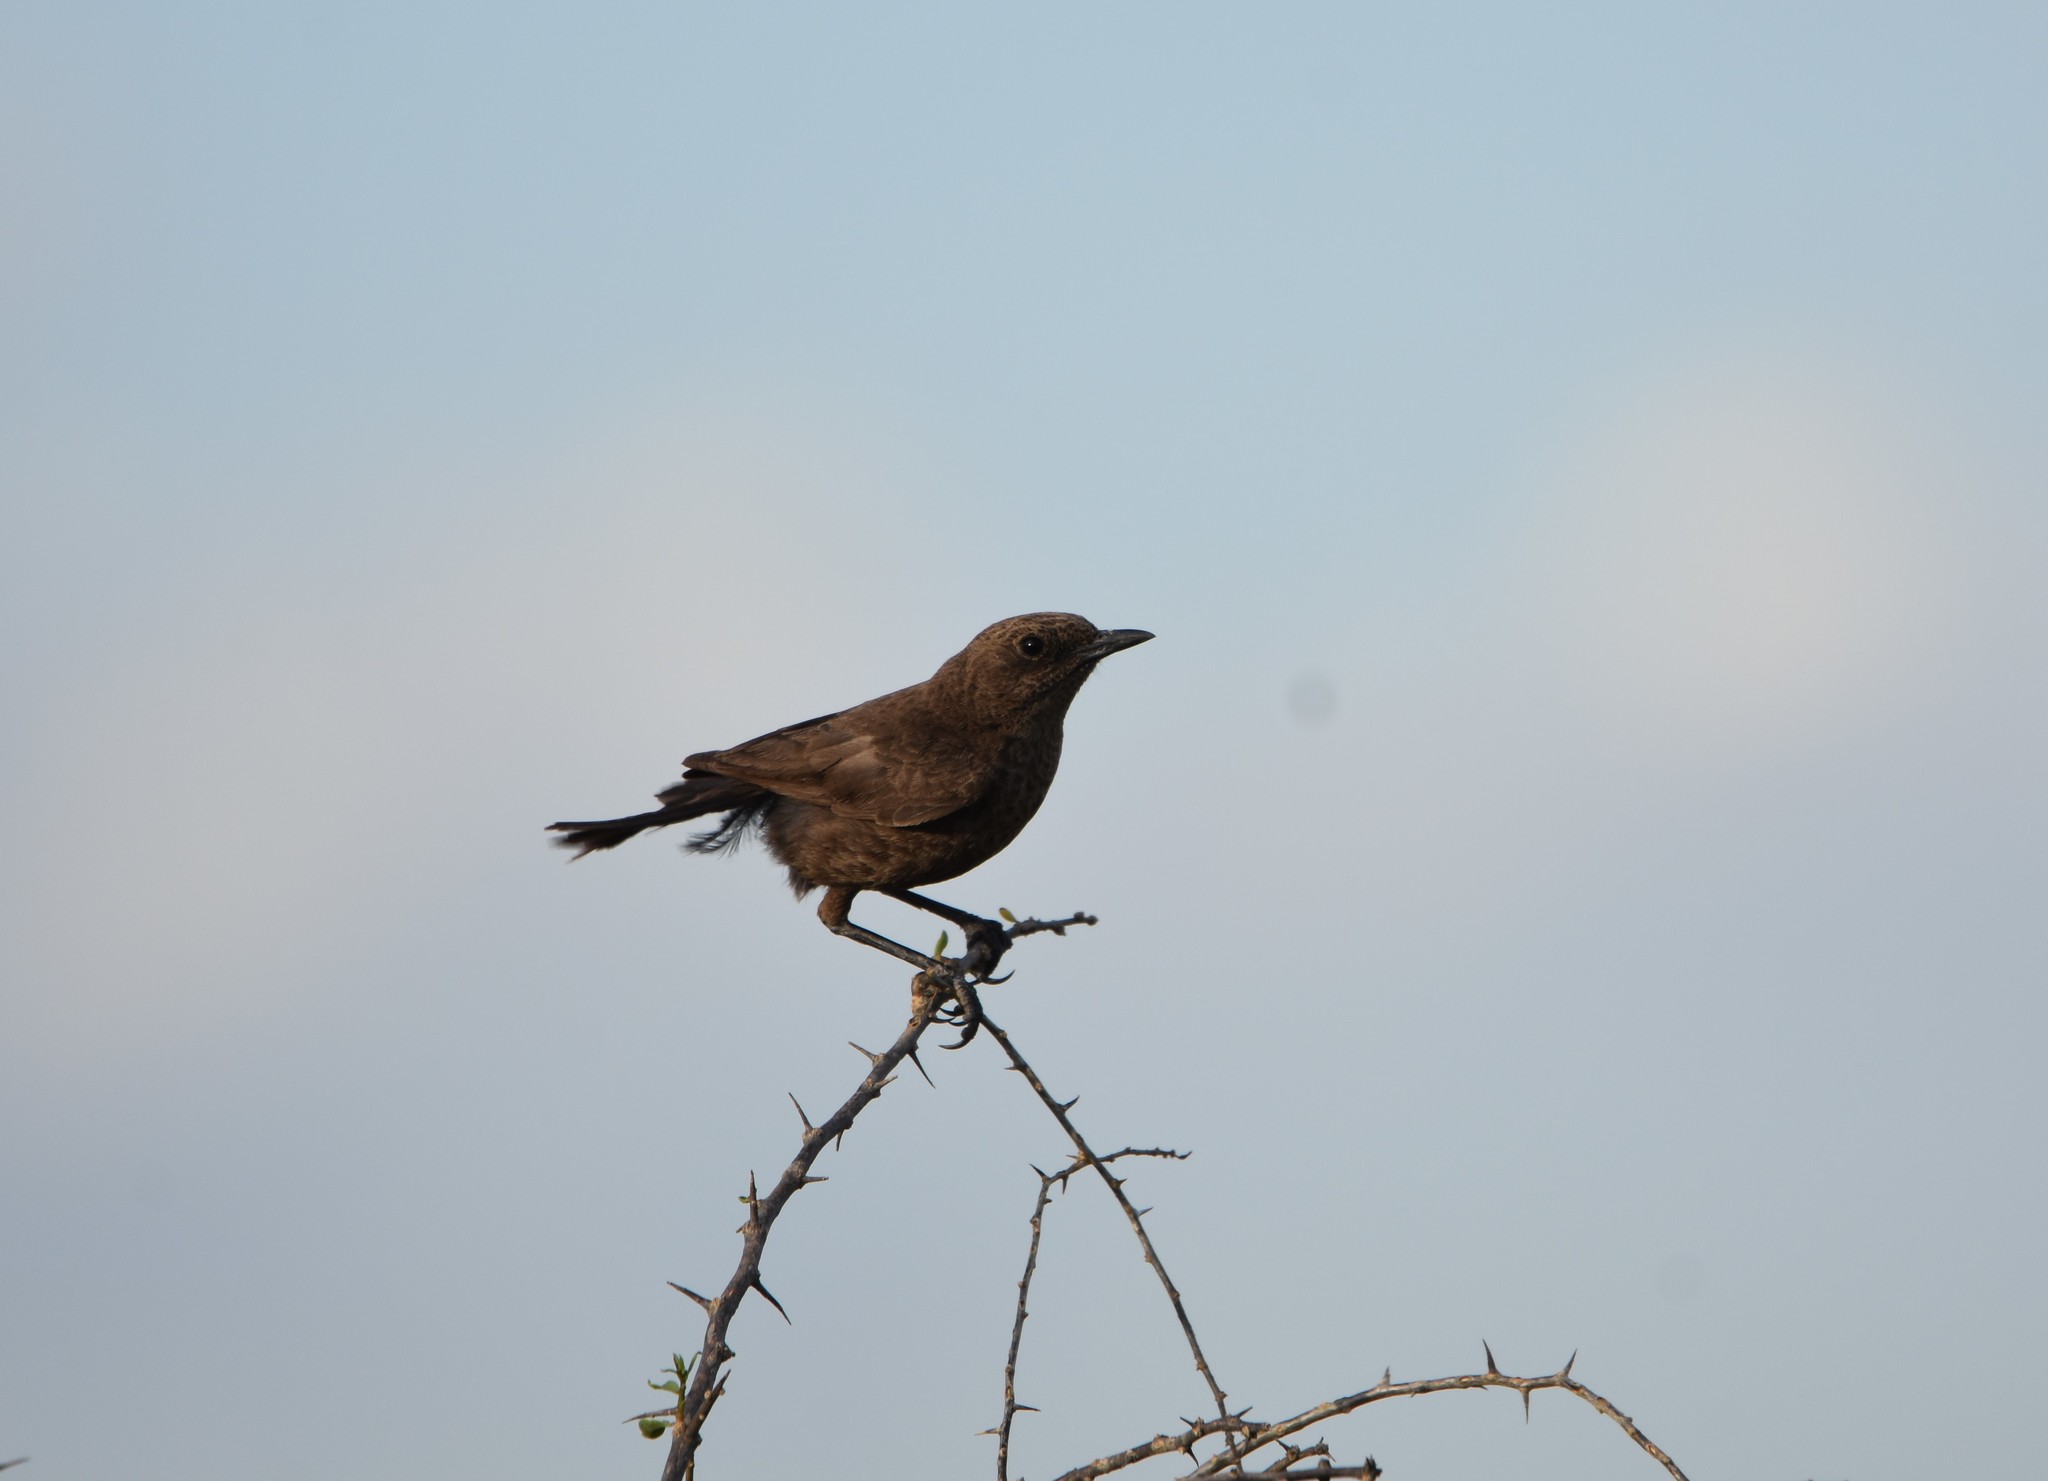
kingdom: Animalia
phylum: Chordata
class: Aves
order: Passeriformes
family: Muscicapidae
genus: Myrmecocichla
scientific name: Myrmecocichla formicivora
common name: Ant-eating chat
